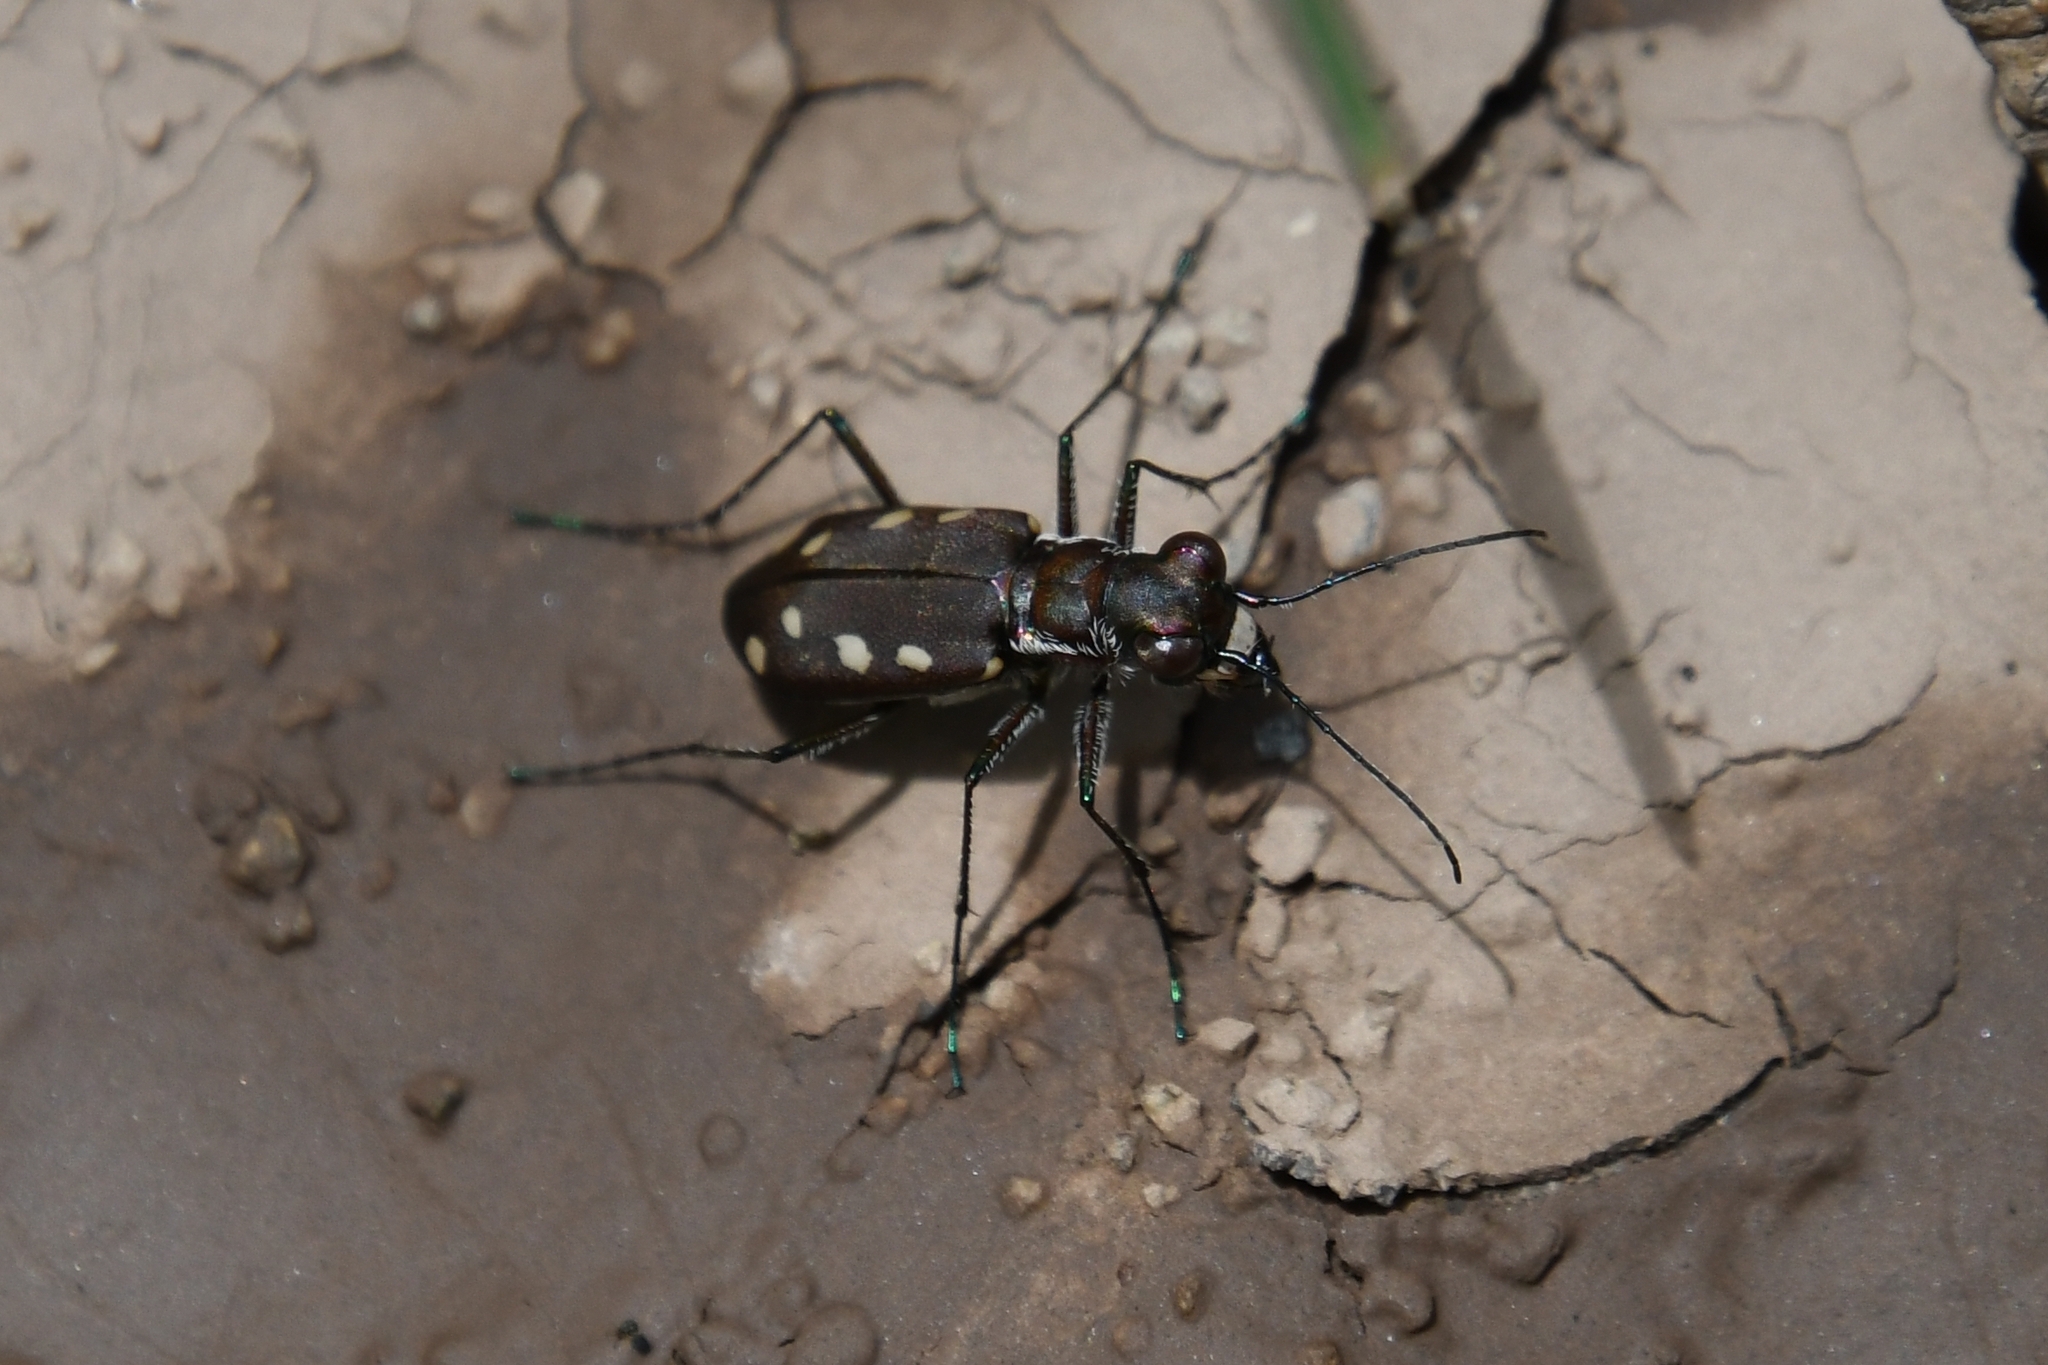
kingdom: Animalia
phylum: Arthropoda
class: Insecta
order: Coleoptera
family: Carabidae
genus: Cicindela
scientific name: Cicindela ocellata
